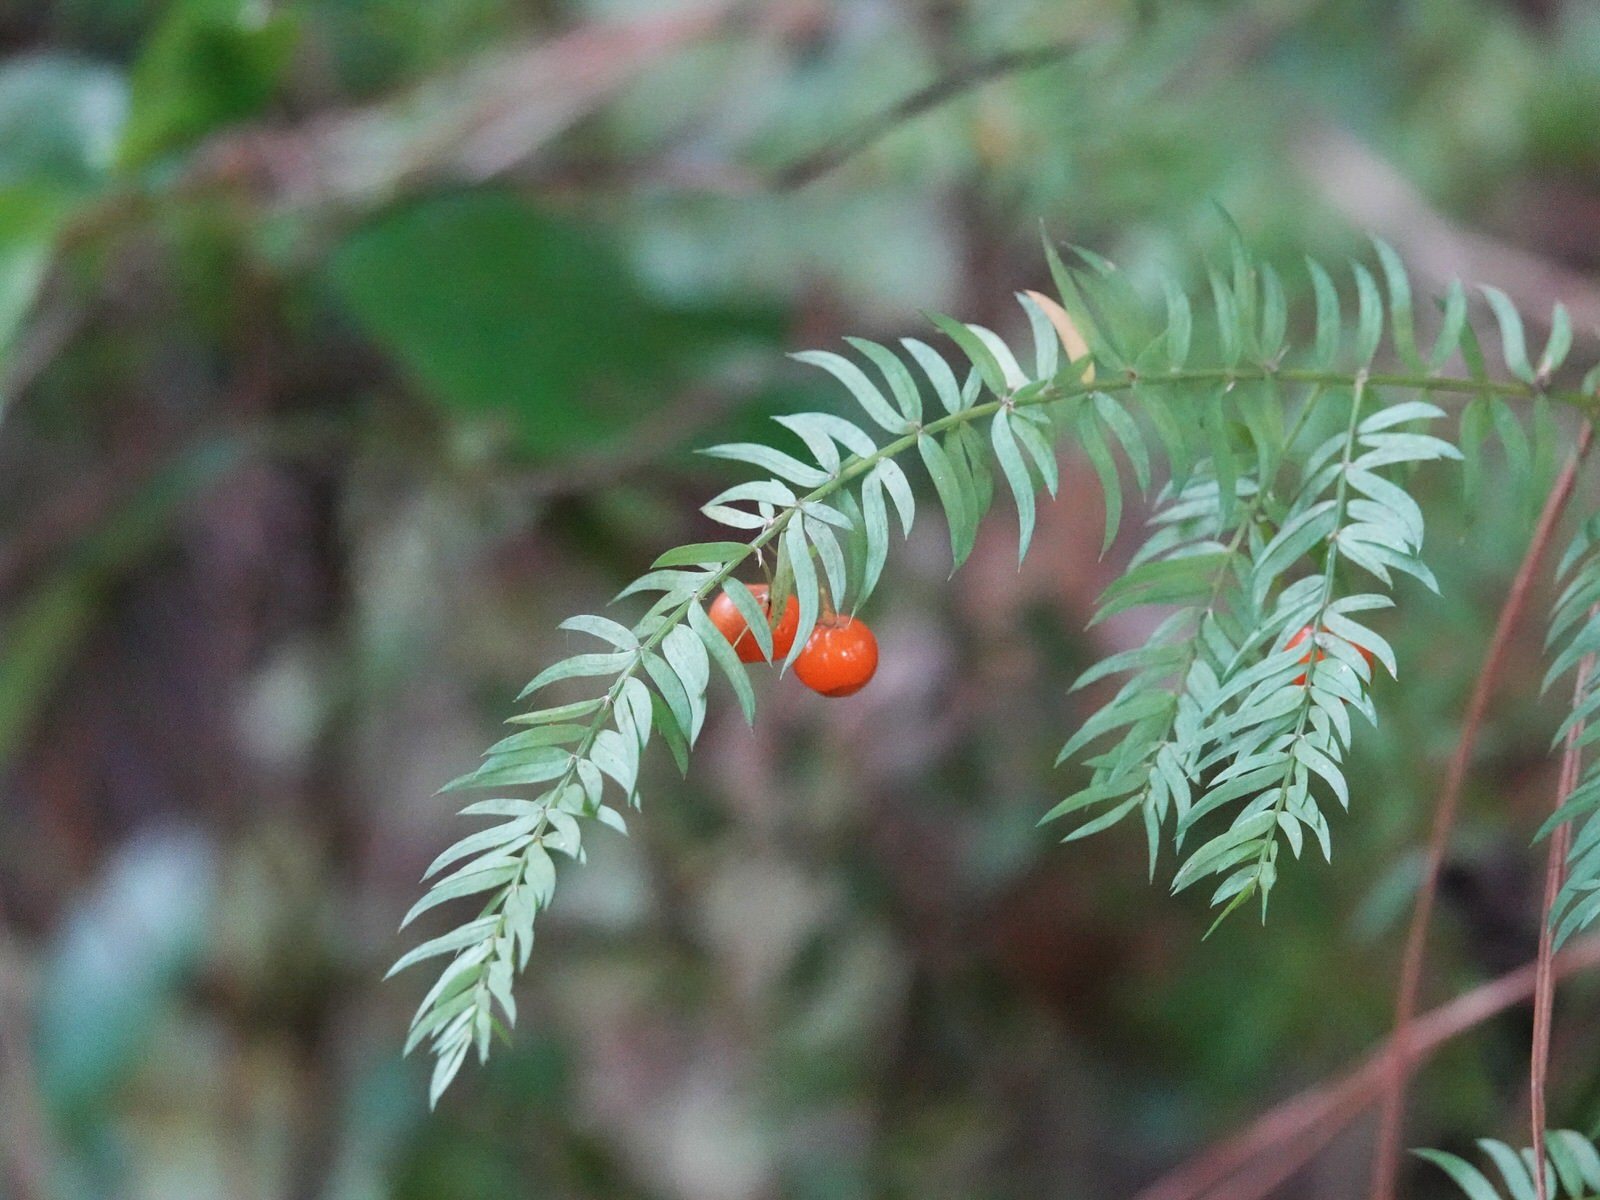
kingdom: Plantae
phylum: Tracheophyta
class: Liliopsida
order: Asparagales
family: Asparagaceae
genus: Asparagus
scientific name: Asparagus scandens
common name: Asparagus-fern
